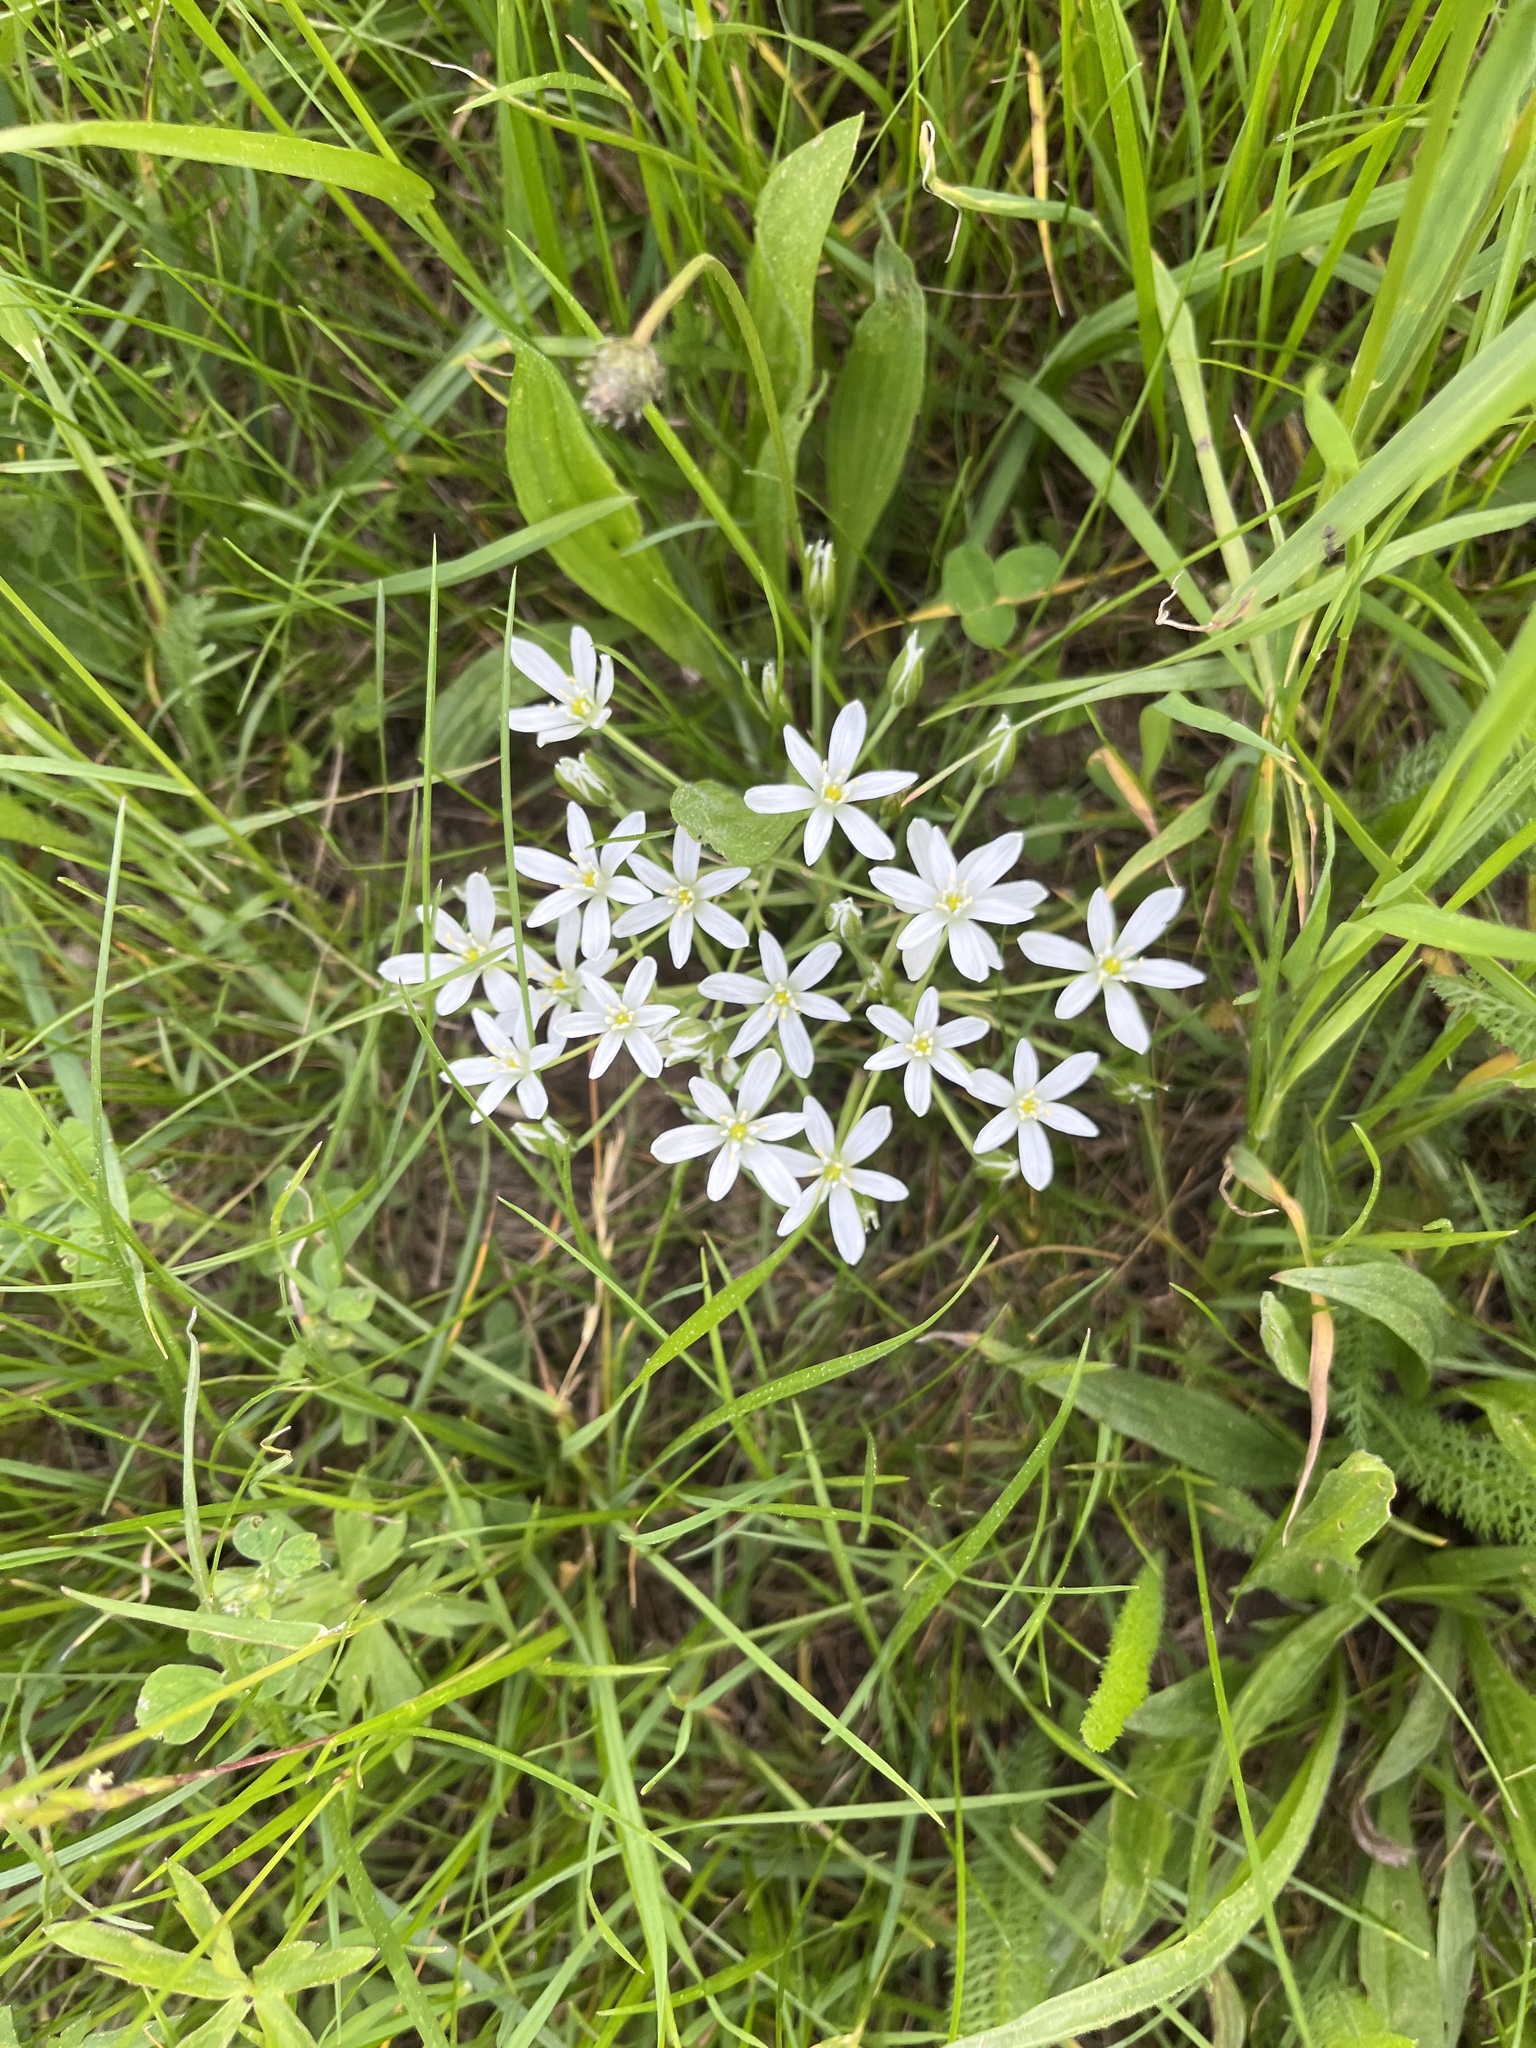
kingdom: Plantae
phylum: Tracheophyta
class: Liliopsida
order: Asparagales
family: Asparagaceae
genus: Ornithogalum
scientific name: Ornithogalum umbellatum
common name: Garden star-of-bethlehem
